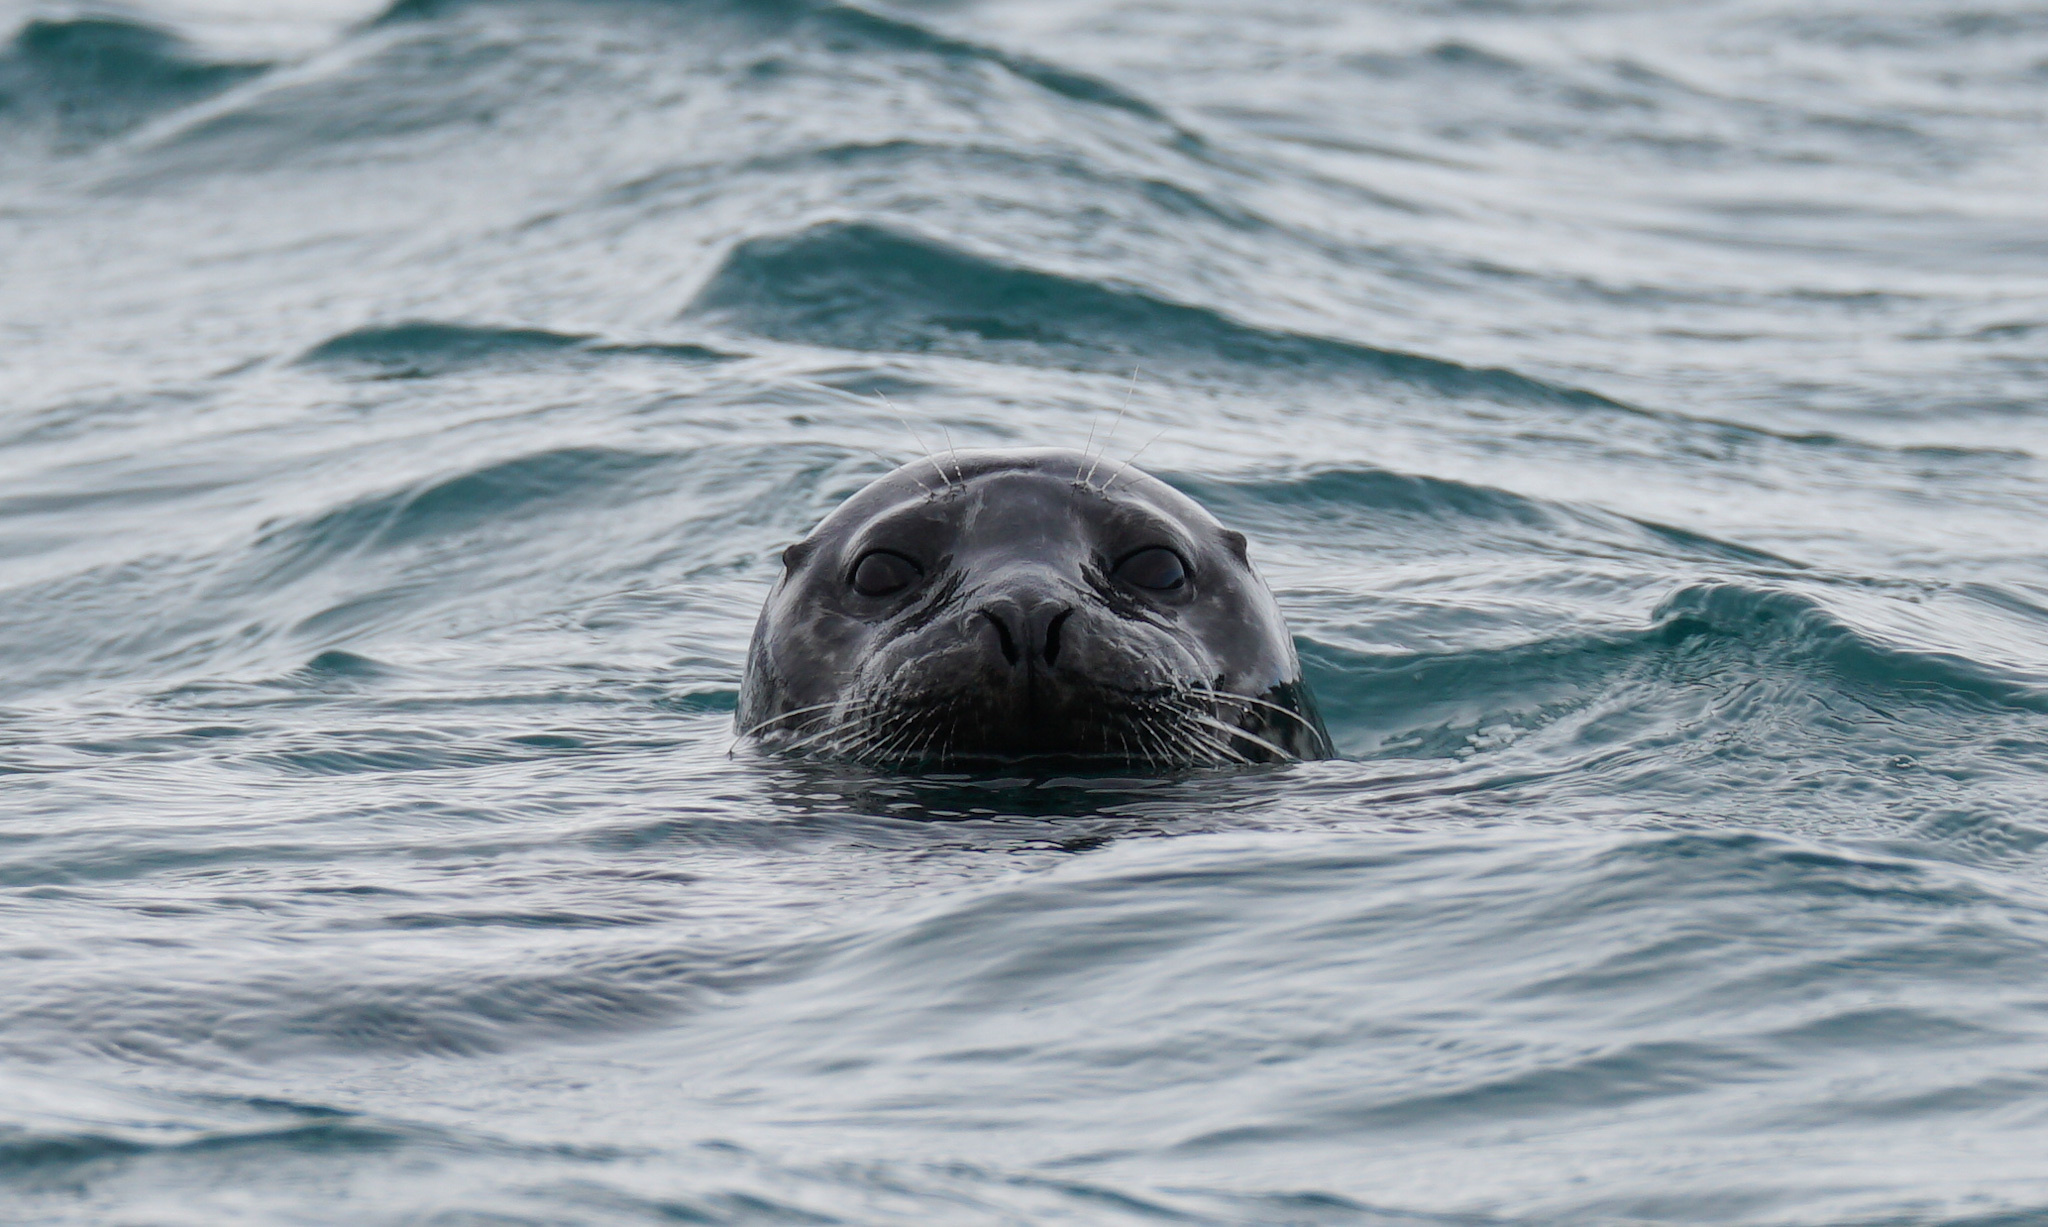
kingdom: Animalia
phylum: Chordata
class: Mammalia
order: Carnivora
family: Phocidae
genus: Phoca
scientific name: Phoca vitulina
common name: Harbor seal
